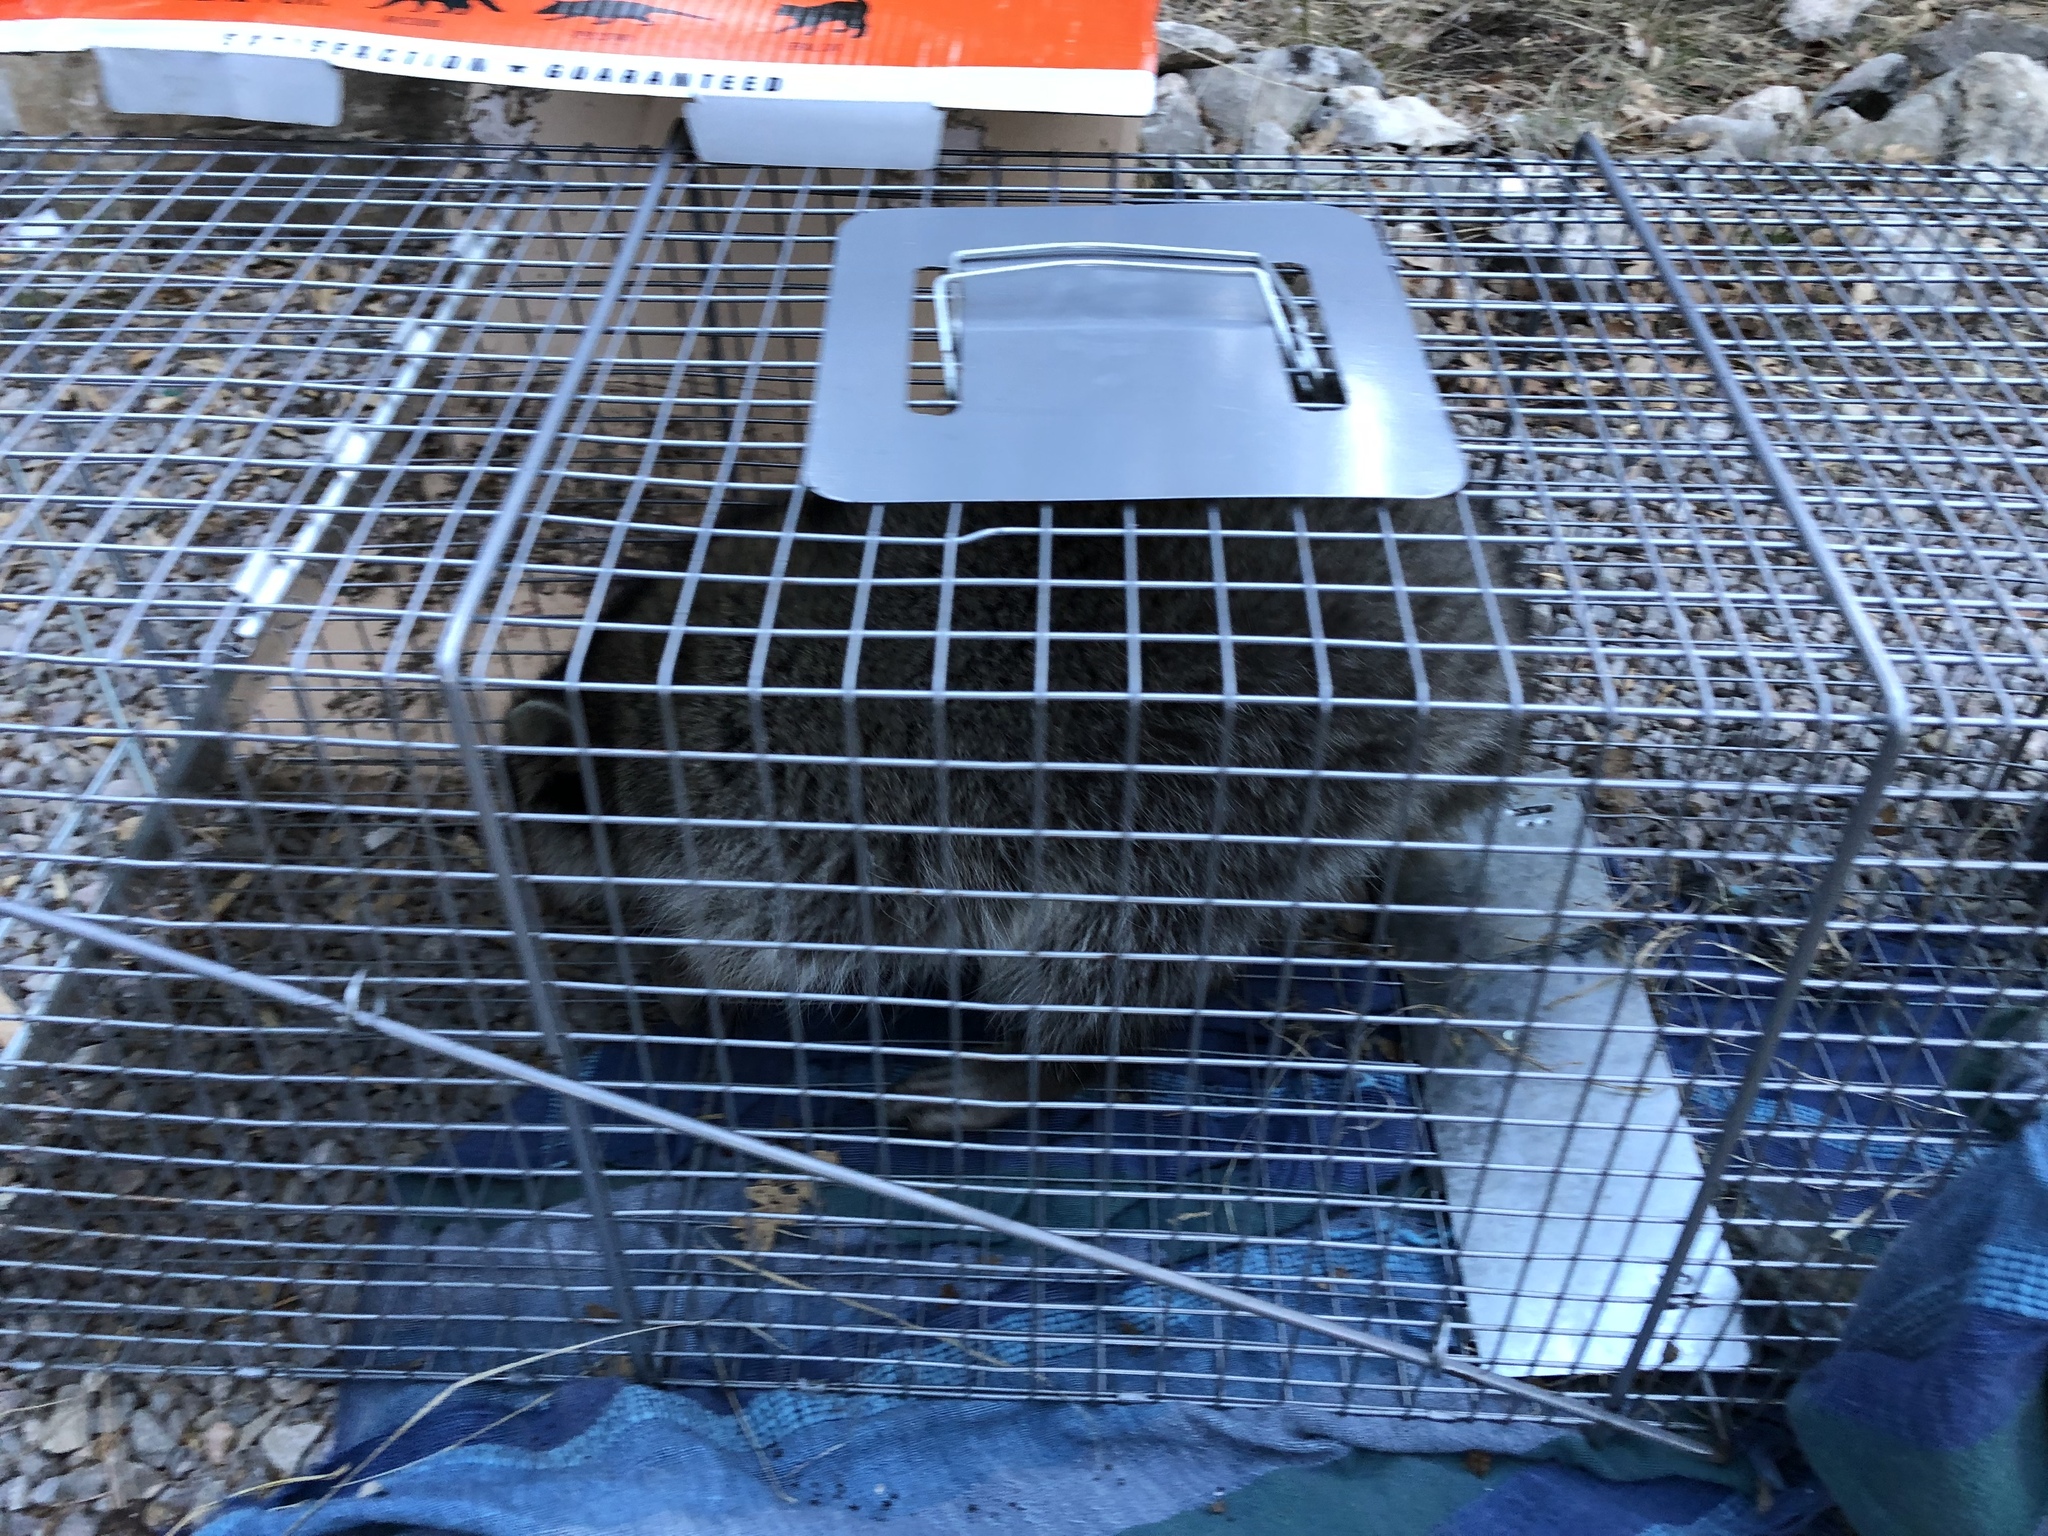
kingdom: Animalia
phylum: Chordata
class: Mammalia
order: Carnivora
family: Procyonidae
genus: Procyon
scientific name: Procyon lotor
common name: Raccoon
